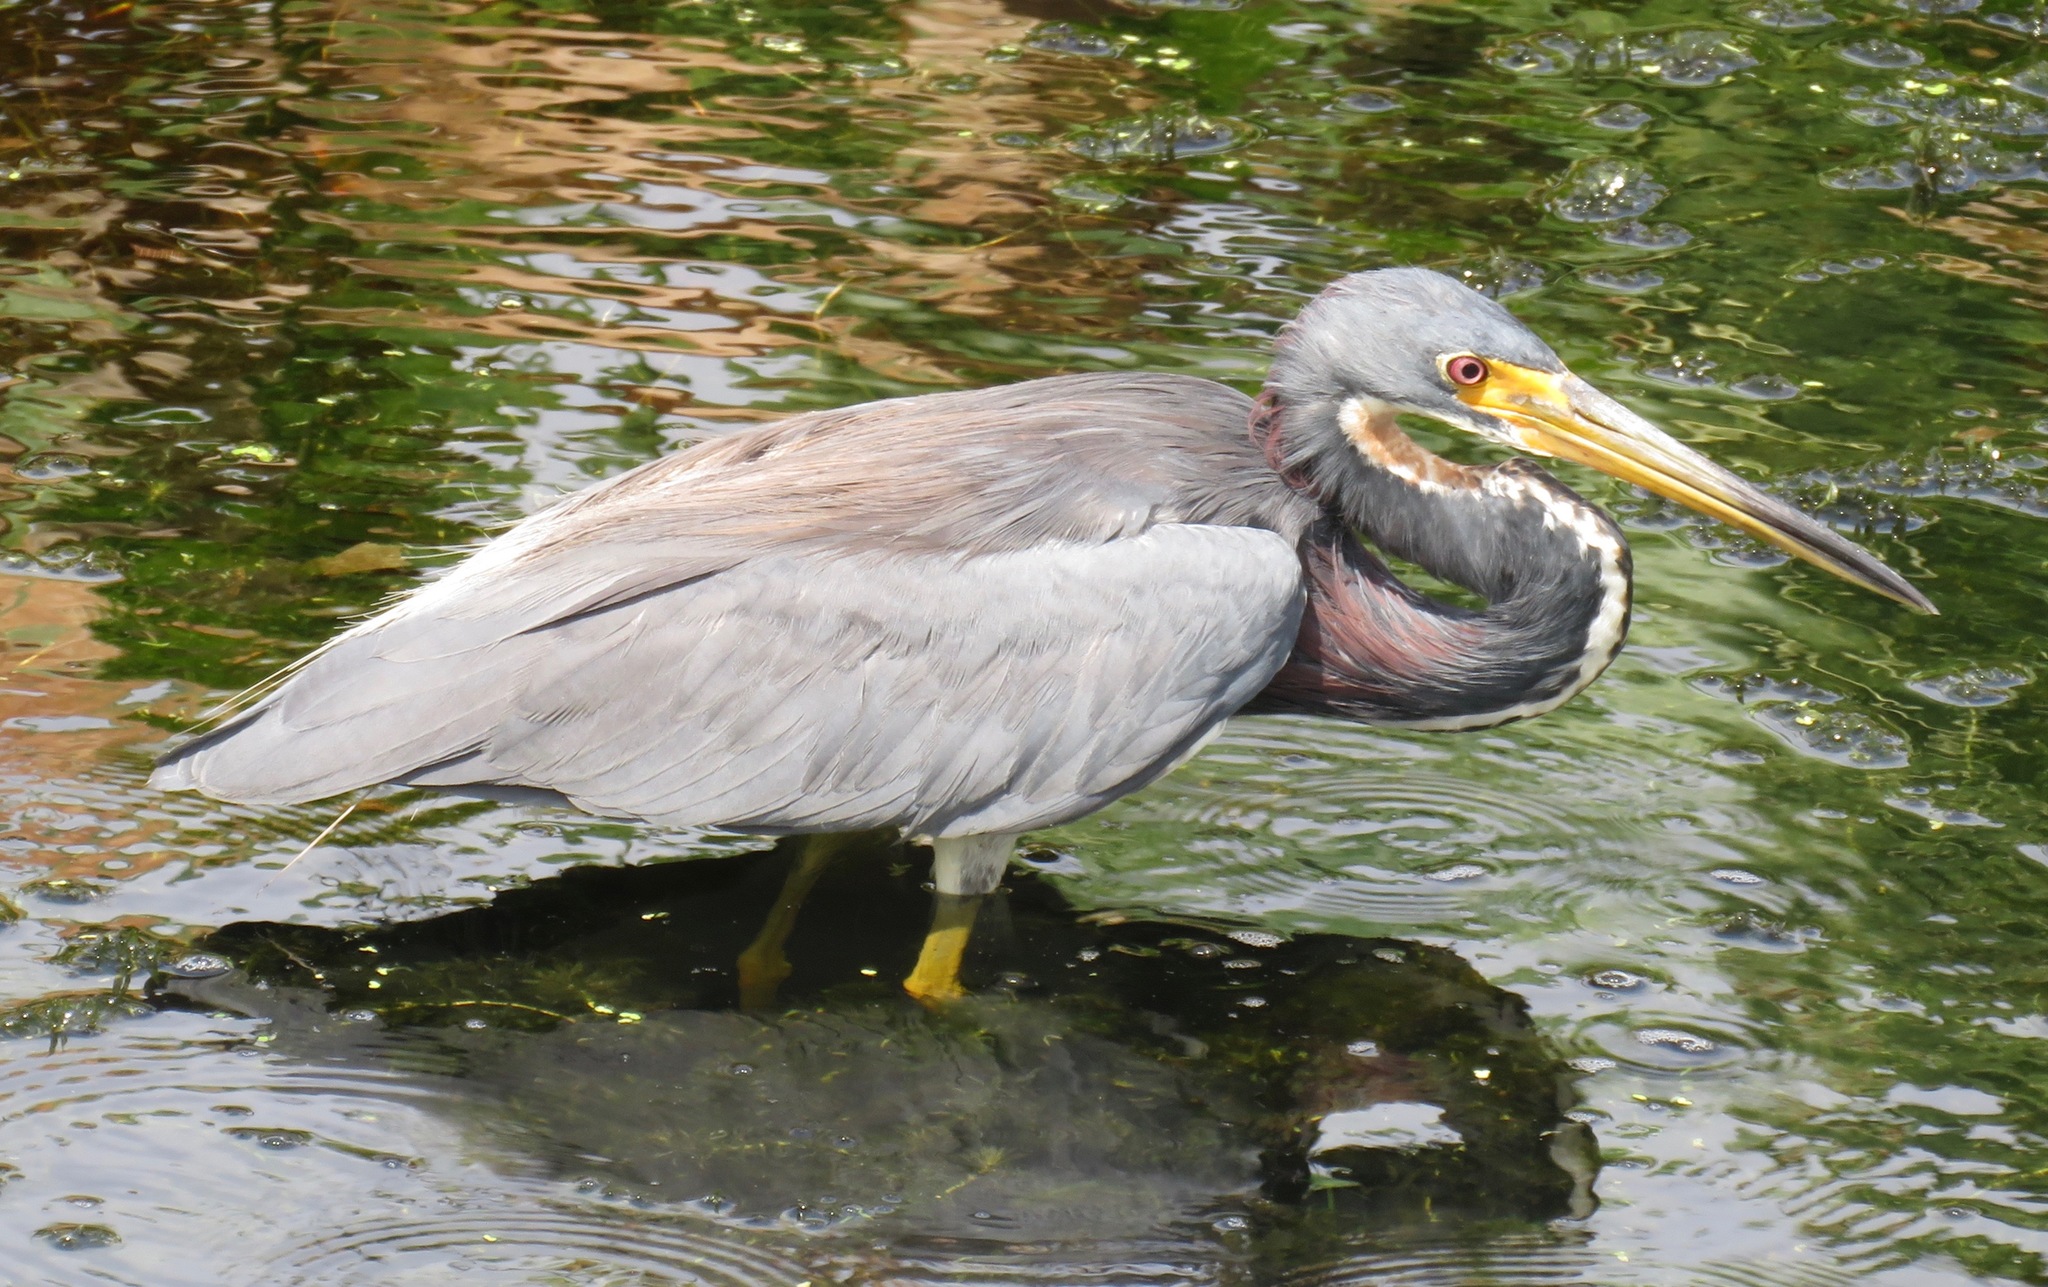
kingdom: Animalia
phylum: Chordata
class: Aves
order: Pelecaniformes
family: Ardeidae
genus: Egretta
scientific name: Egretta tricolor
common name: Tricolored heron
